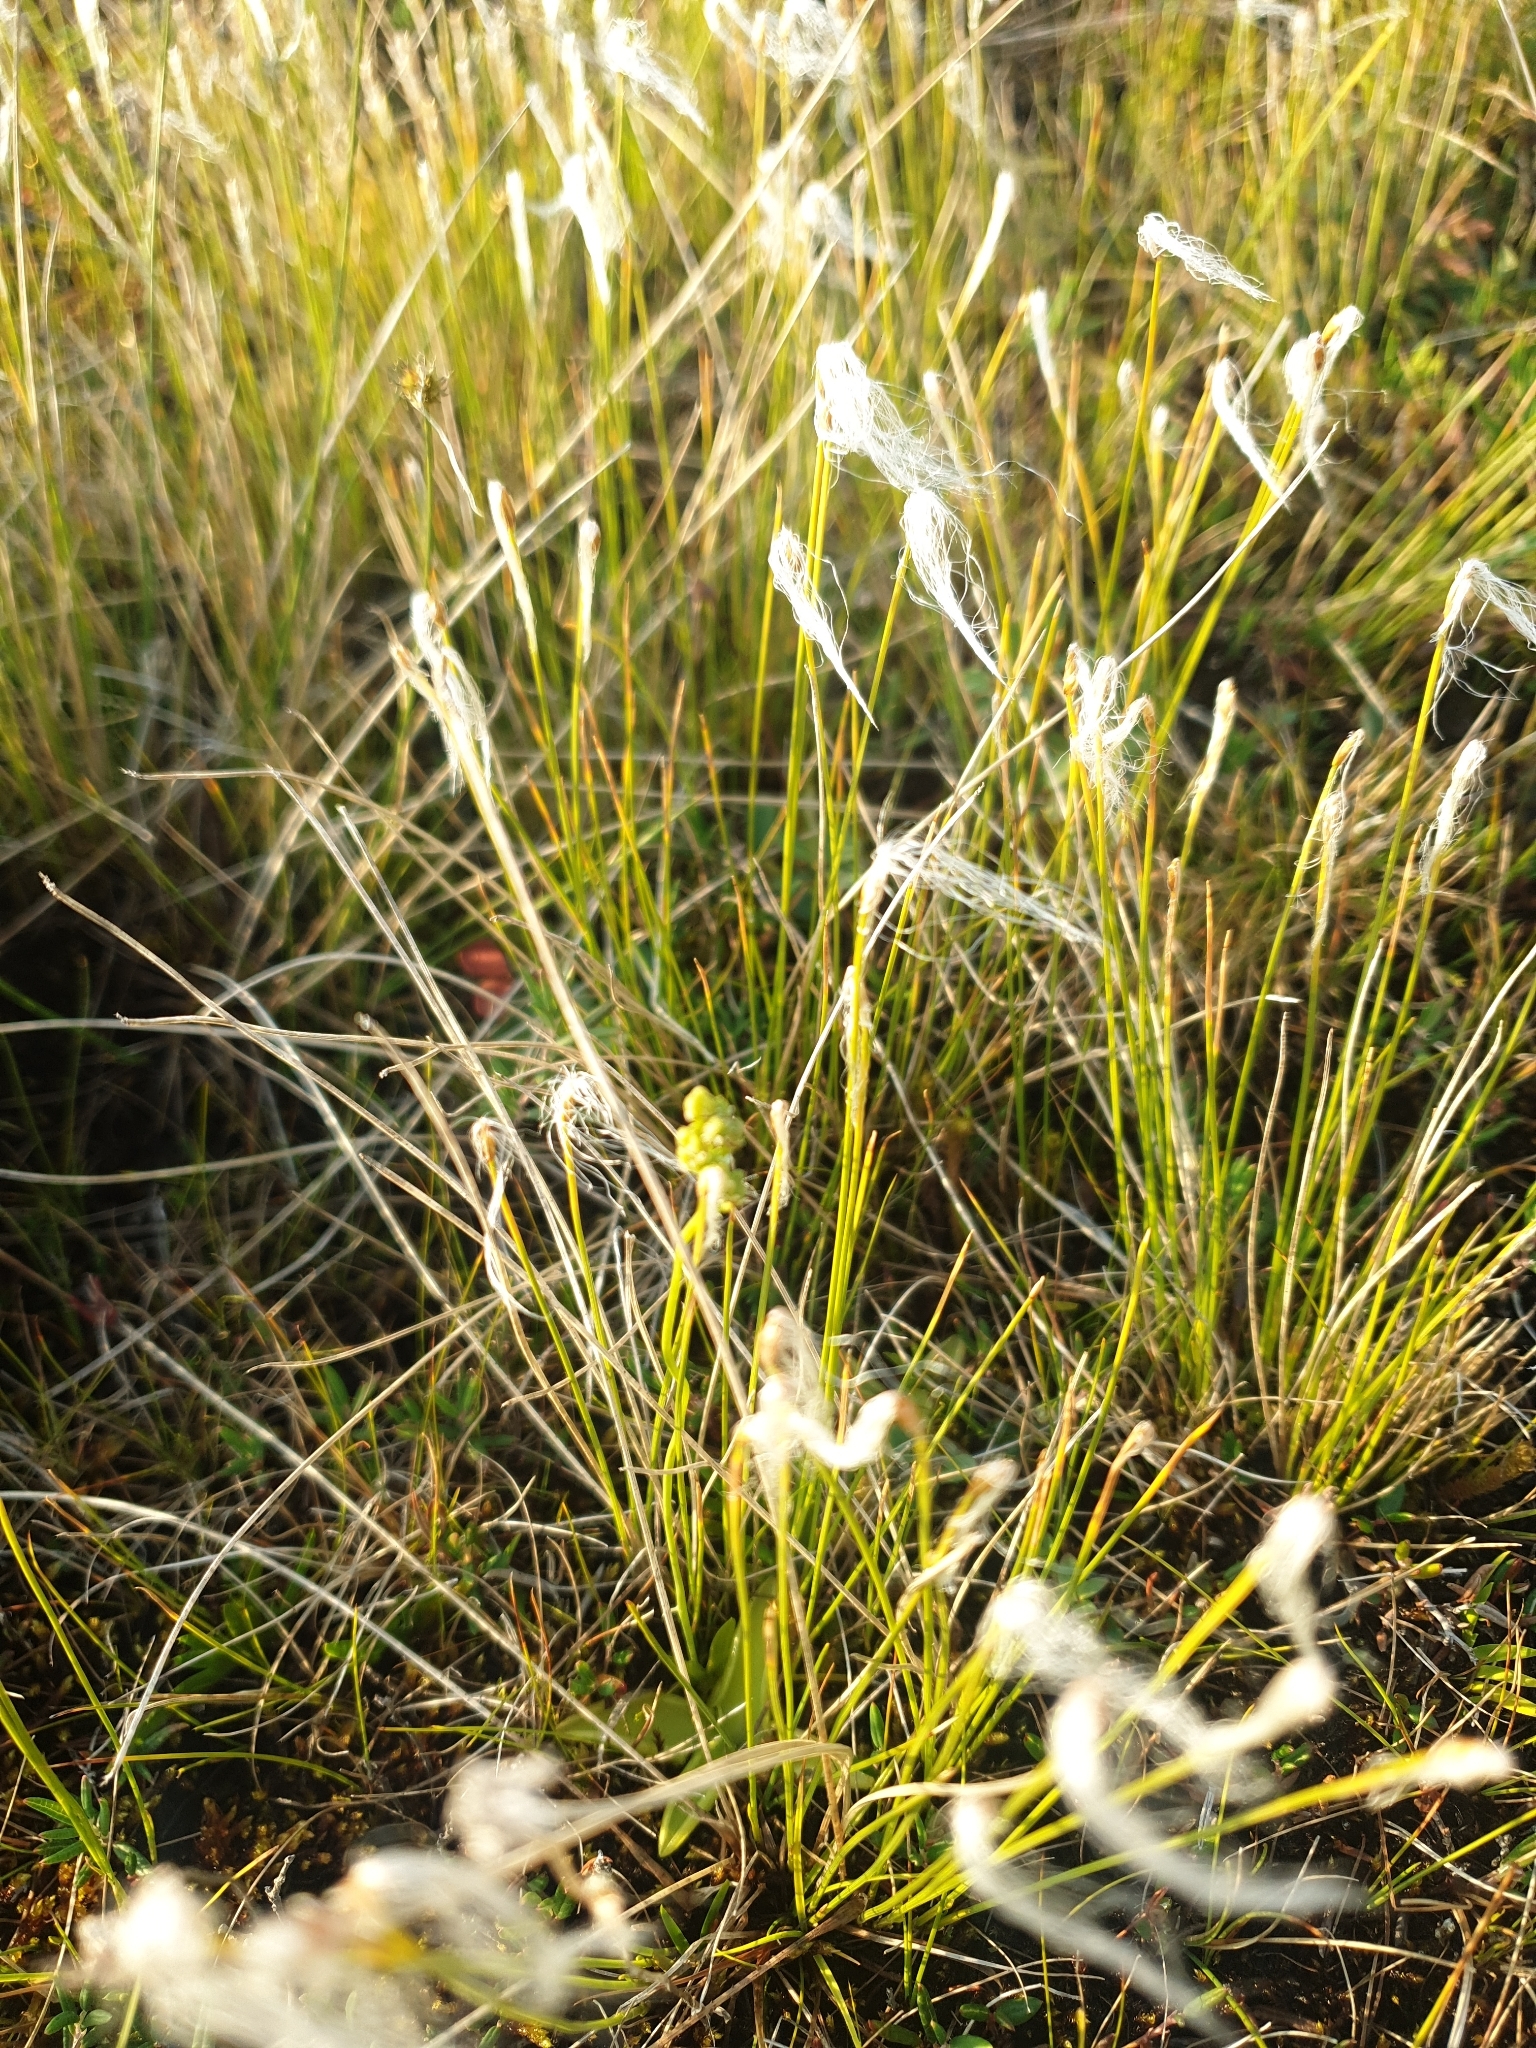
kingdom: Plantae
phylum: Tracheophyta
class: Liliopsida
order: Poales
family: Cyperaceae
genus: Trichophorum
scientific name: Trichophorum alpinum
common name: Alpine bulrush
